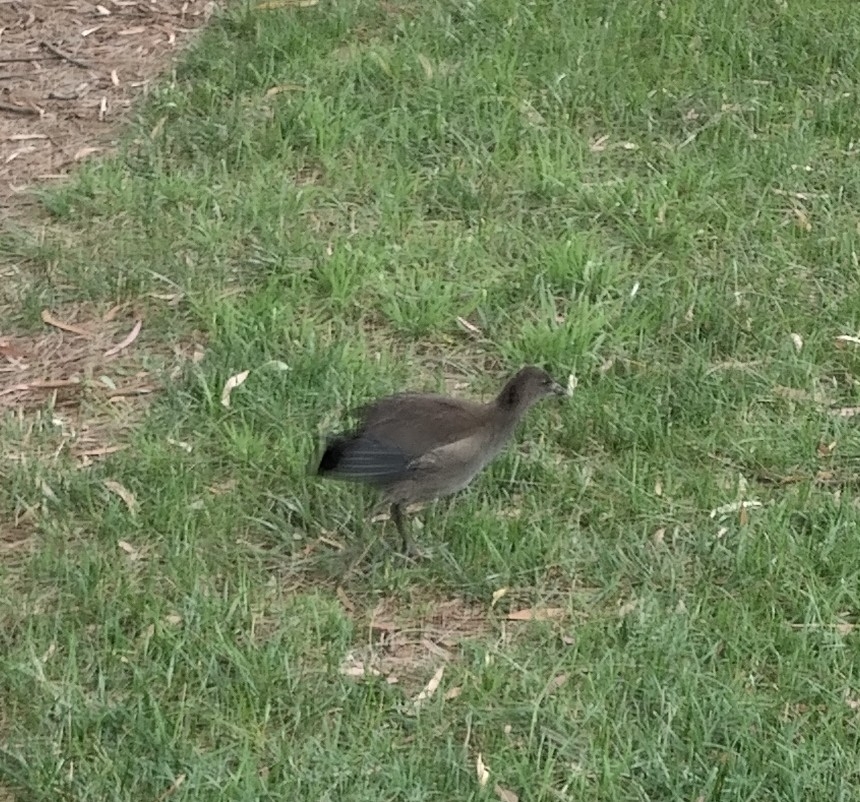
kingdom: Animalia
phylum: Chordata
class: Aves
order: Gruiformes
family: Rallidae
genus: Gallinula
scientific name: Gallinula tenebrosa
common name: Dusky moorhen
